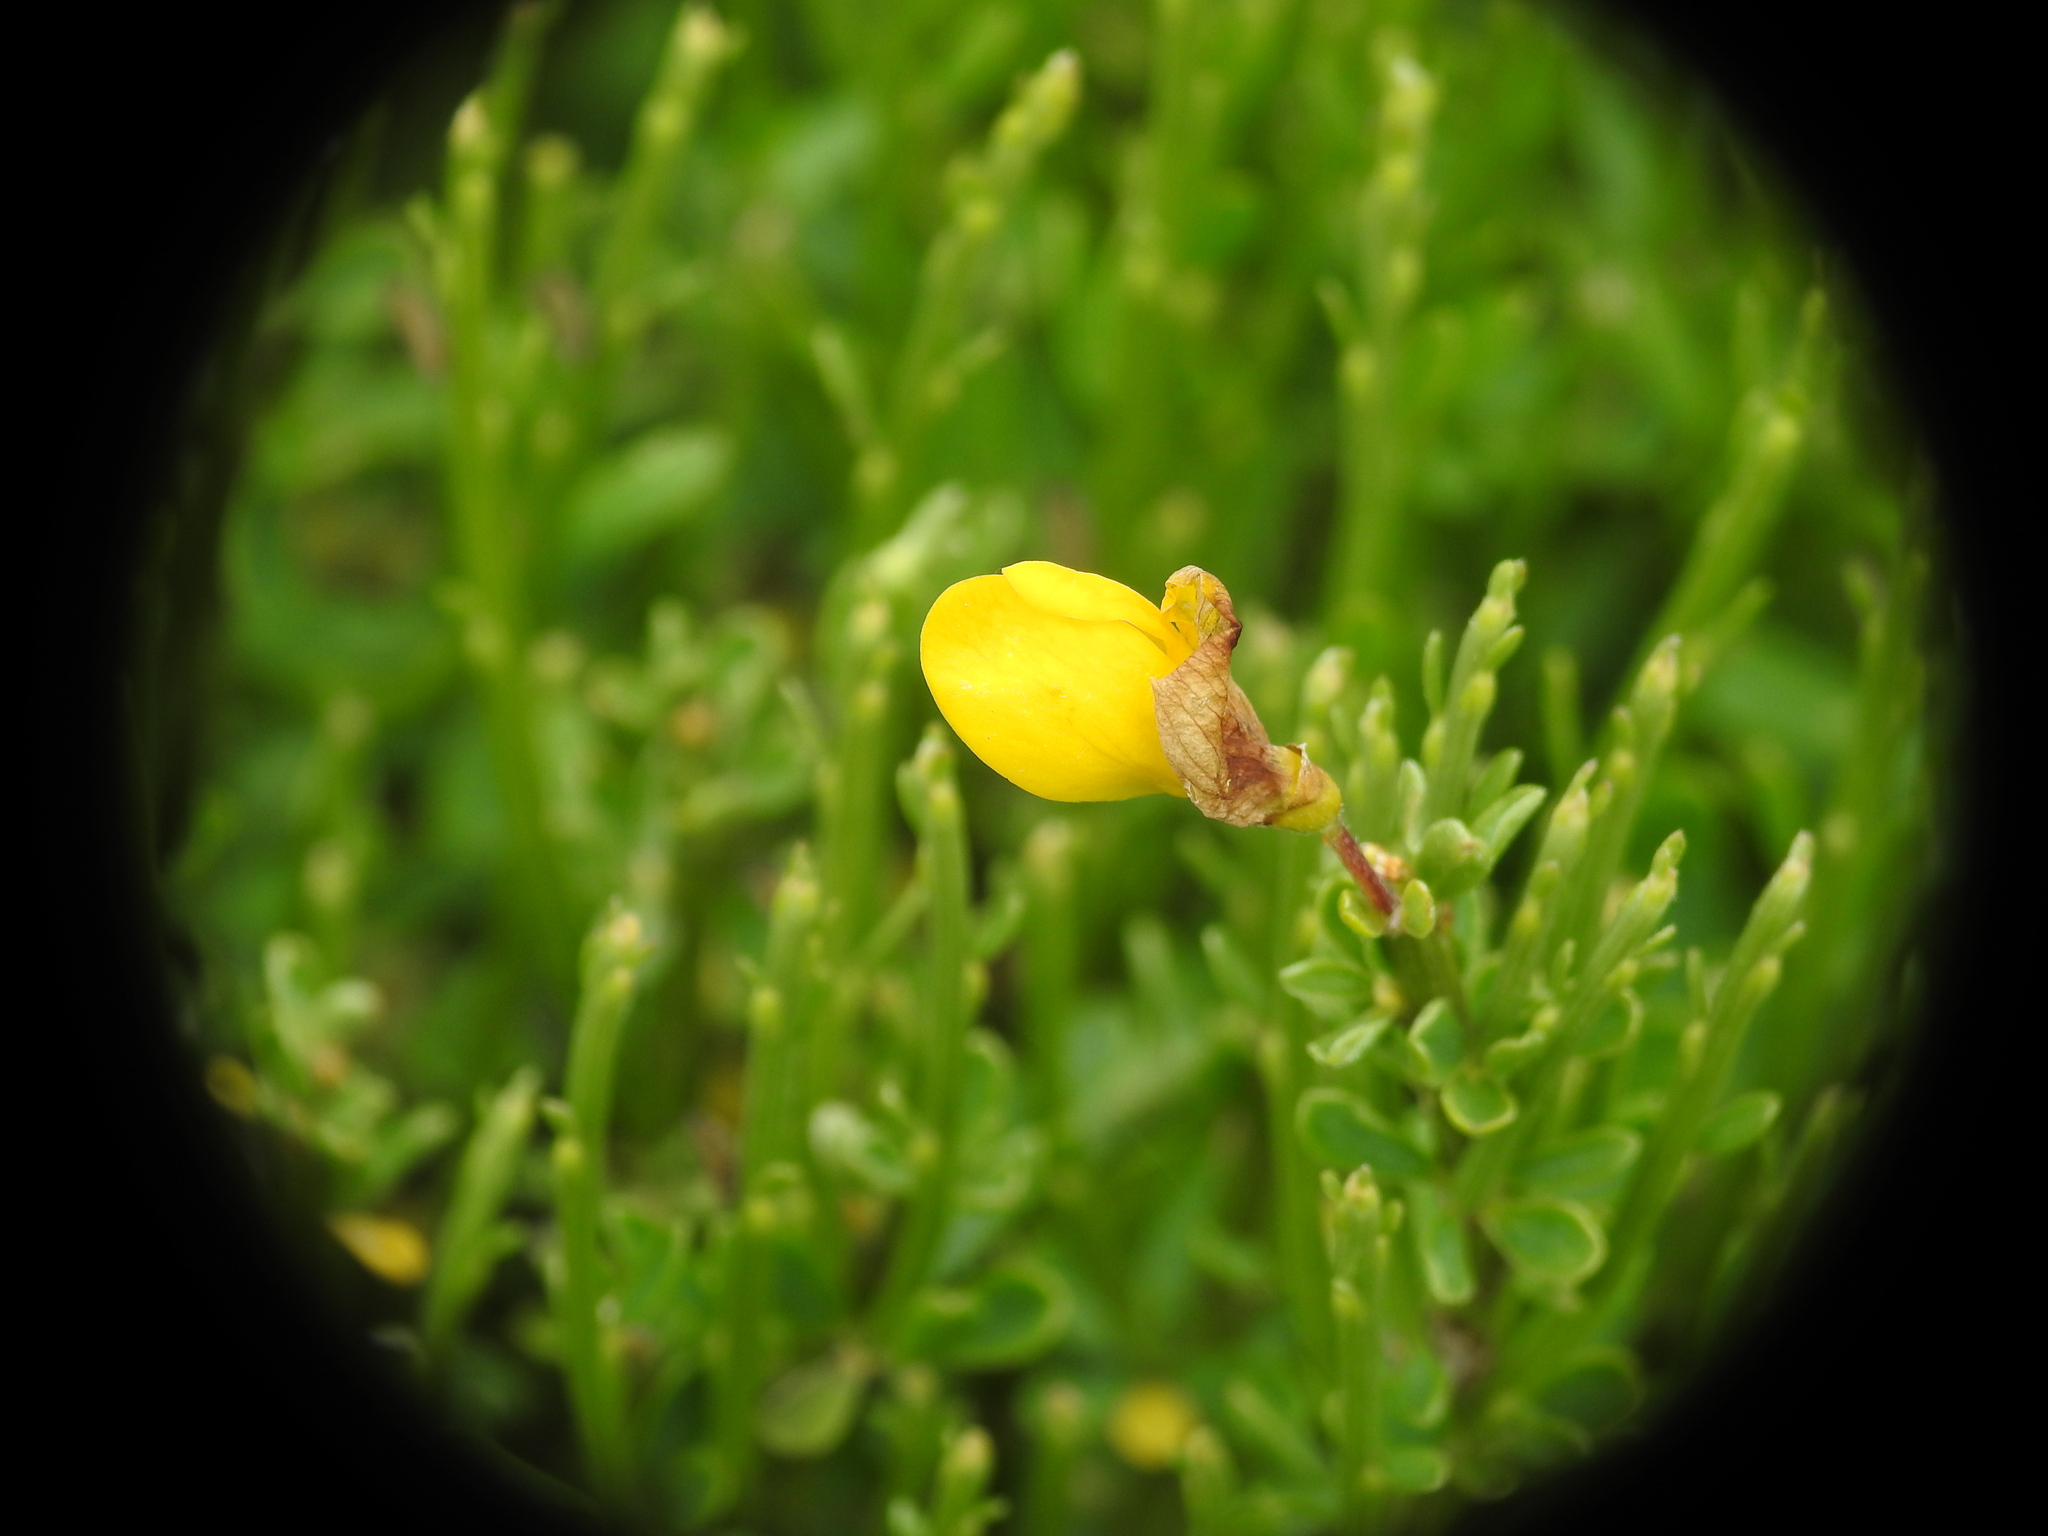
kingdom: Plantae
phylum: Tracheophyta
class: Magnoliopsida
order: Fabales
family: Fabaceae
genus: Cytisus
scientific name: Cytisus oromediterraneus
